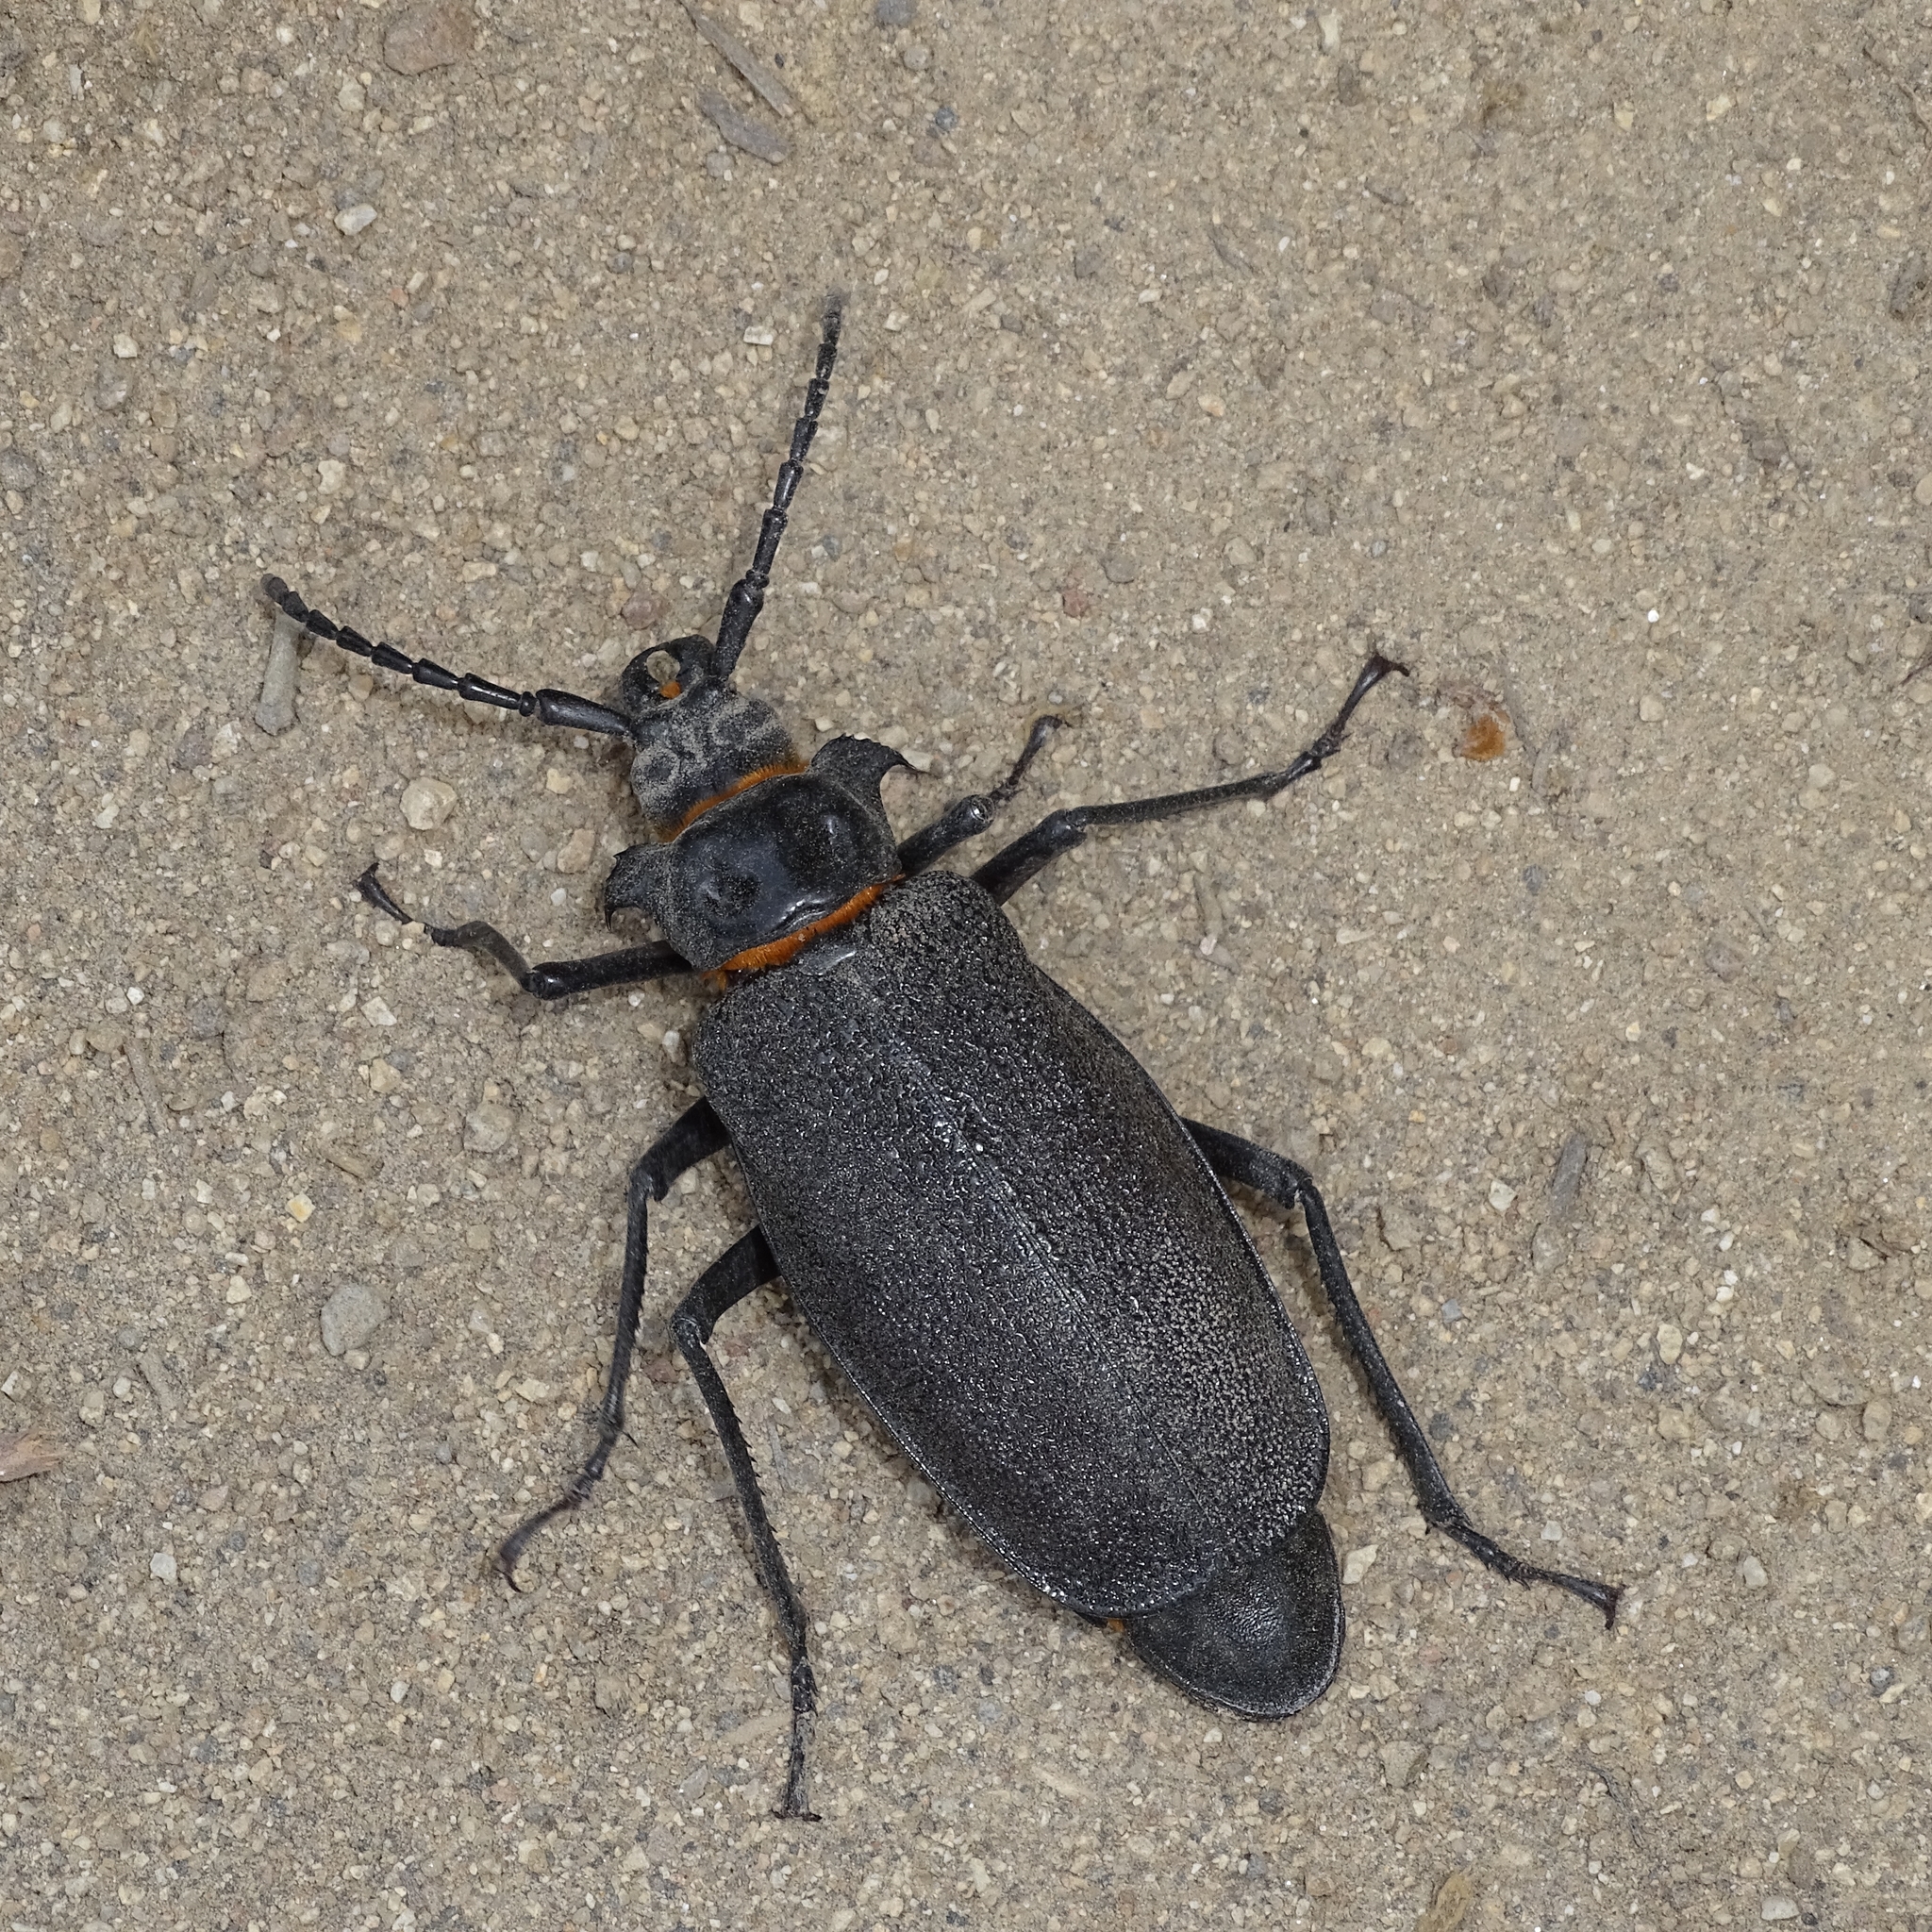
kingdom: Animalia
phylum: Arthropoda
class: Insecta
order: Coleoptera
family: Cerambycidae
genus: Acanthinodera
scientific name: Acanthinodera cumingii
